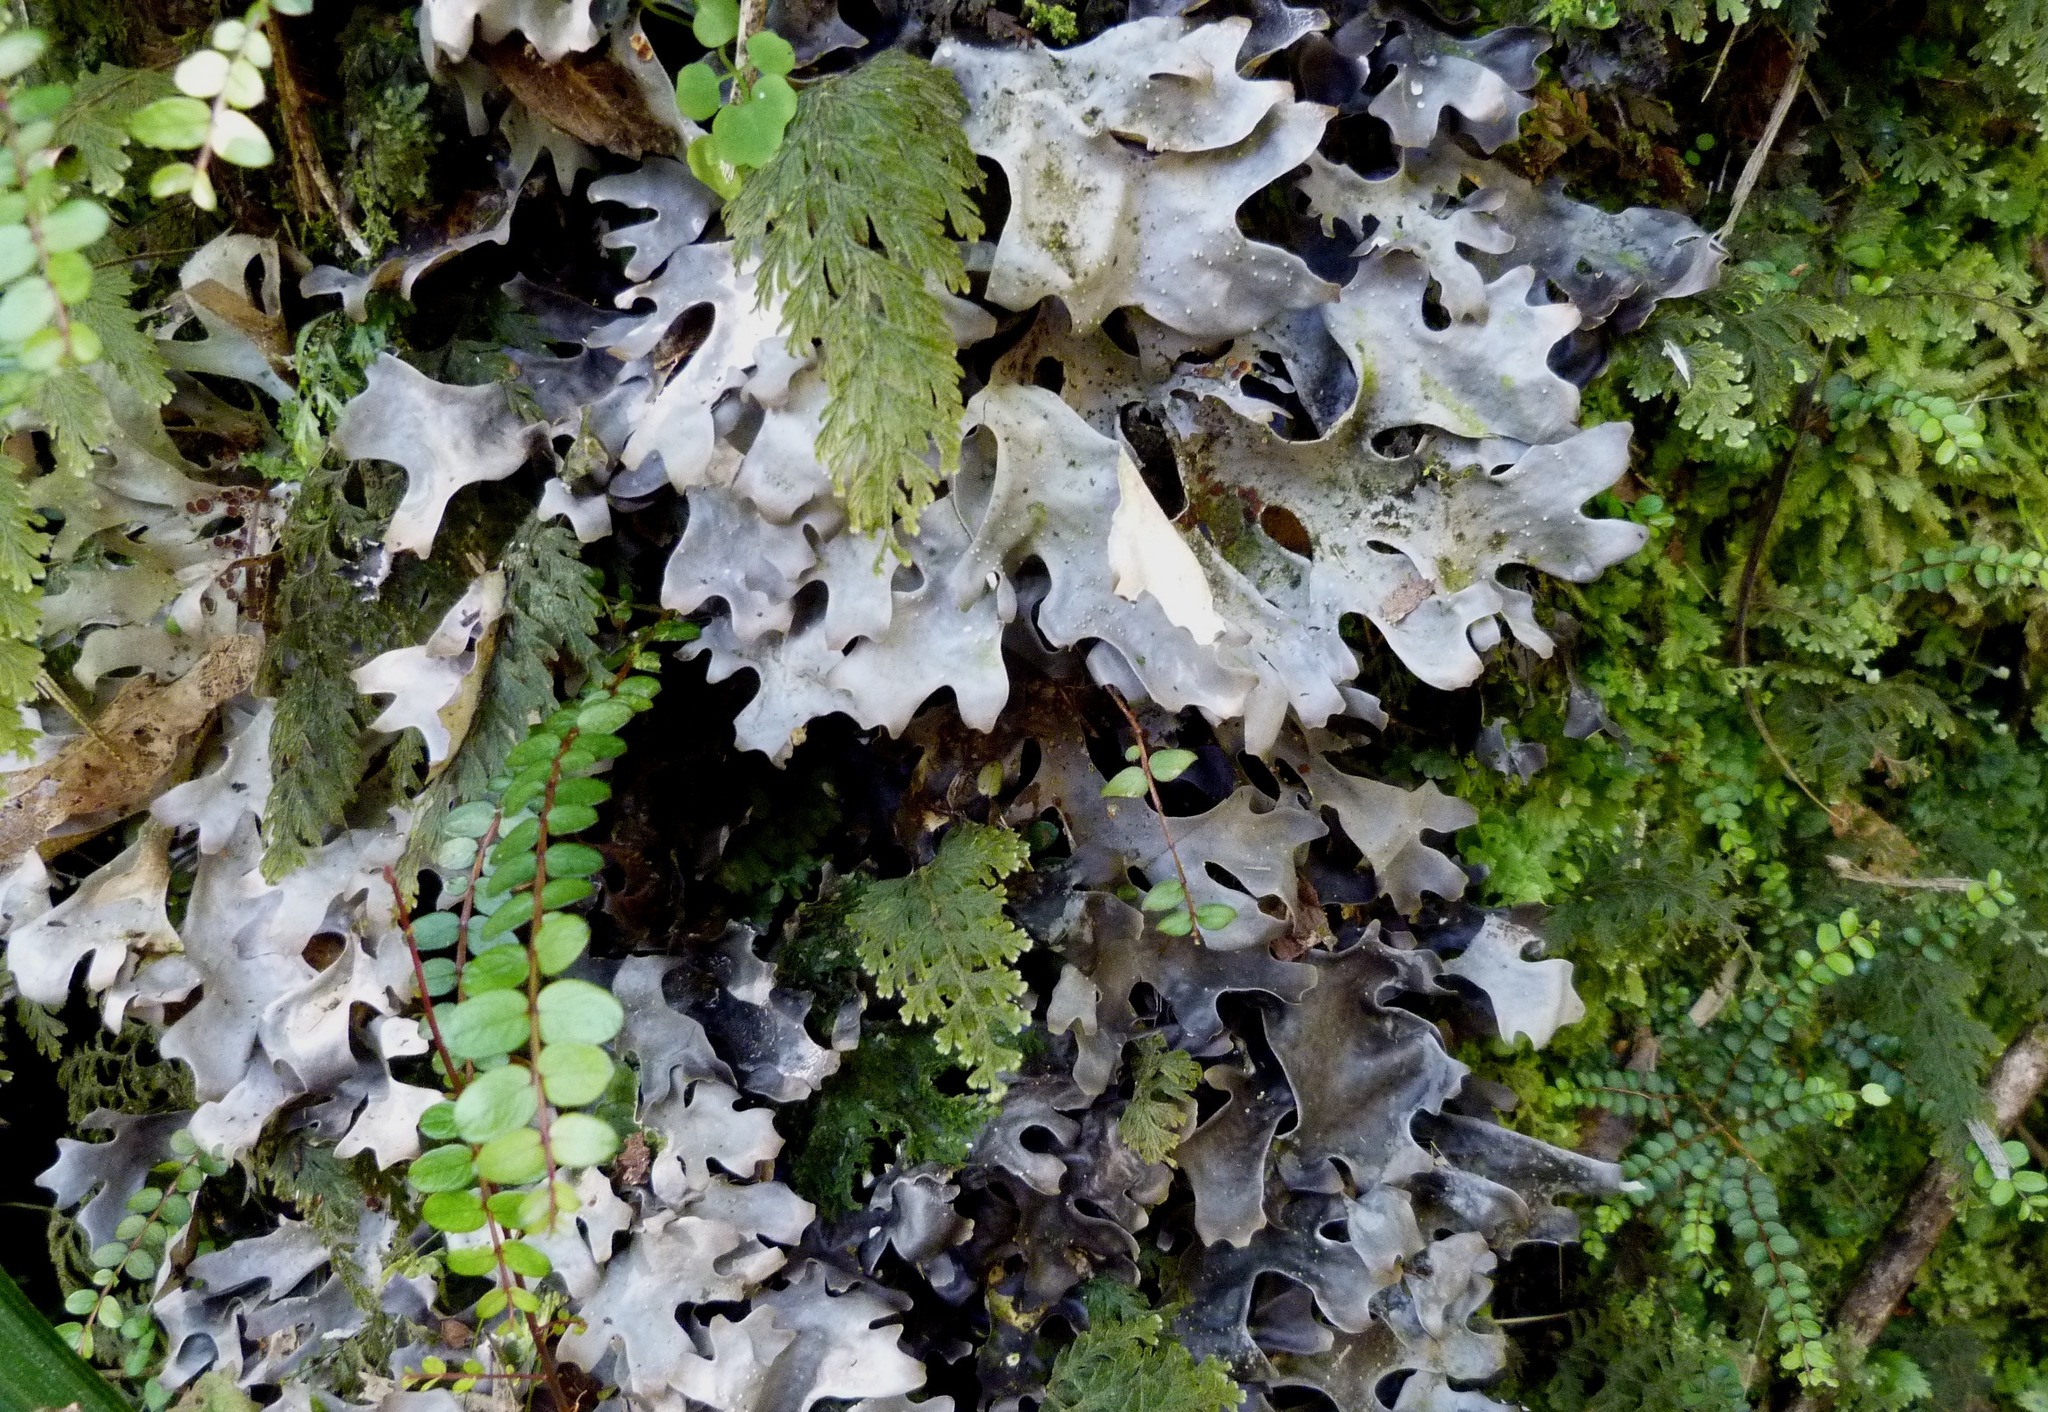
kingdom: Fungi
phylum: Ascomycota
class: Lecanoromycetes
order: Peltigerales
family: Lobariaceae
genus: Pseudocyphellaria
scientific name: Pseudocyphellaria lividofusca
